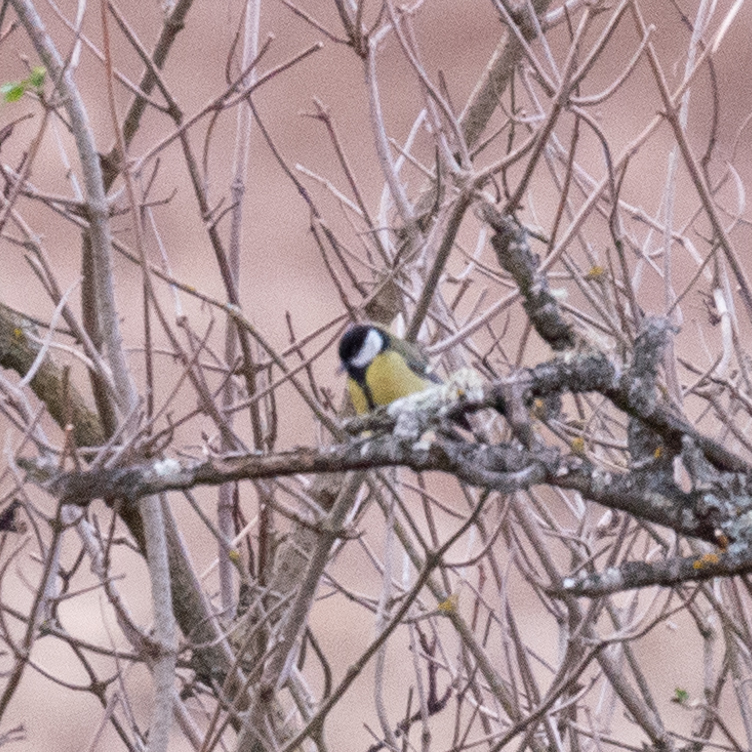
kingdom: Animalia
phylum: Chordata
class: Aves
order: Passeriformes
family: Paridae
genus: Parus
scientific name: Parus major
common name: Great tit
